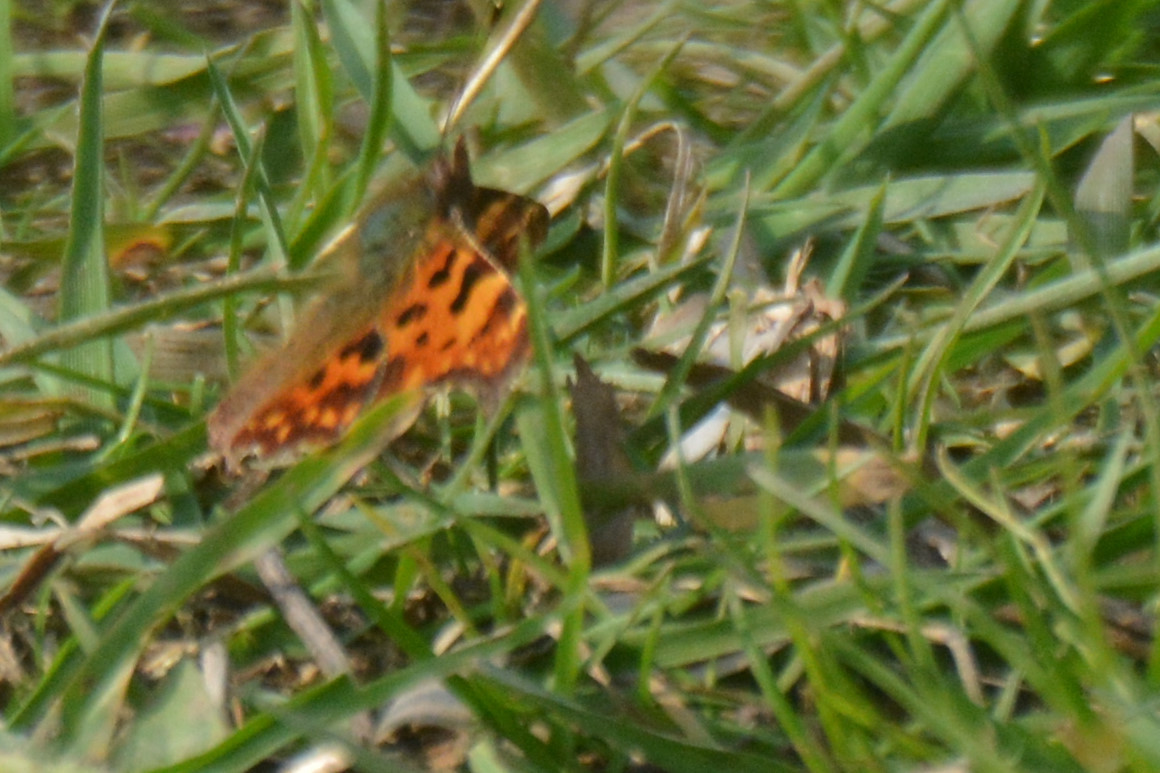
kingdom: Animalia
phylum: Arthropoda
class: Insecta
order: Lepidoptera
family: Nymphalidae
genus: Polygonia
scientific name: Polygonia c-album
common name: Comma
